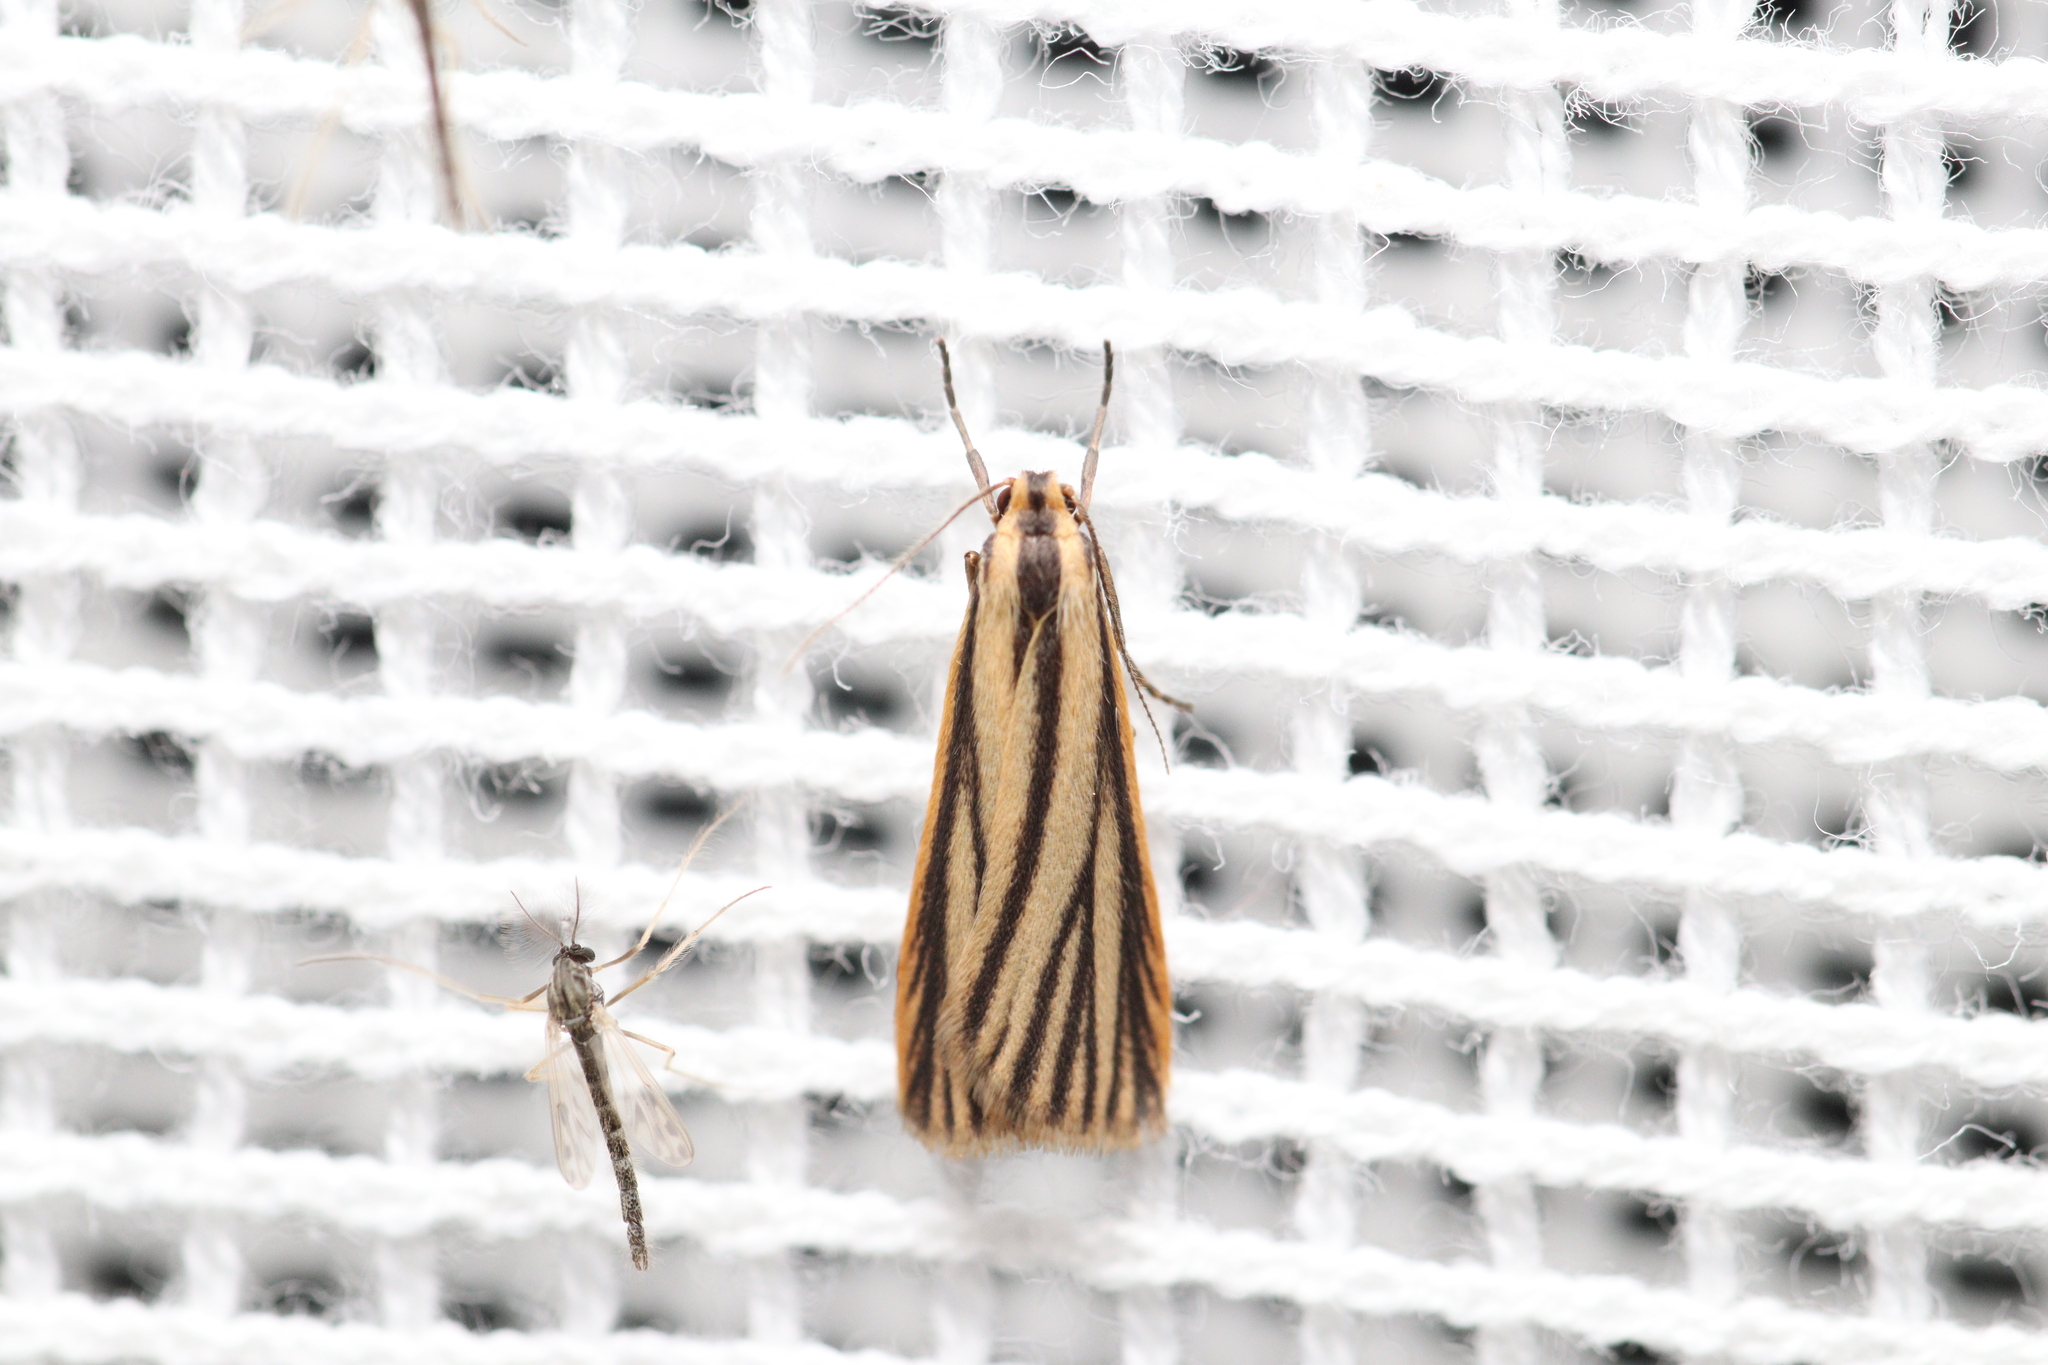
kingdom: Animalia
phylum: Arthropoda
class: Insecta
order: Lepidoptera
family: Erebidae
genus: Phaeophlebosia
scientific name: Phaeophlebosia furcifera
